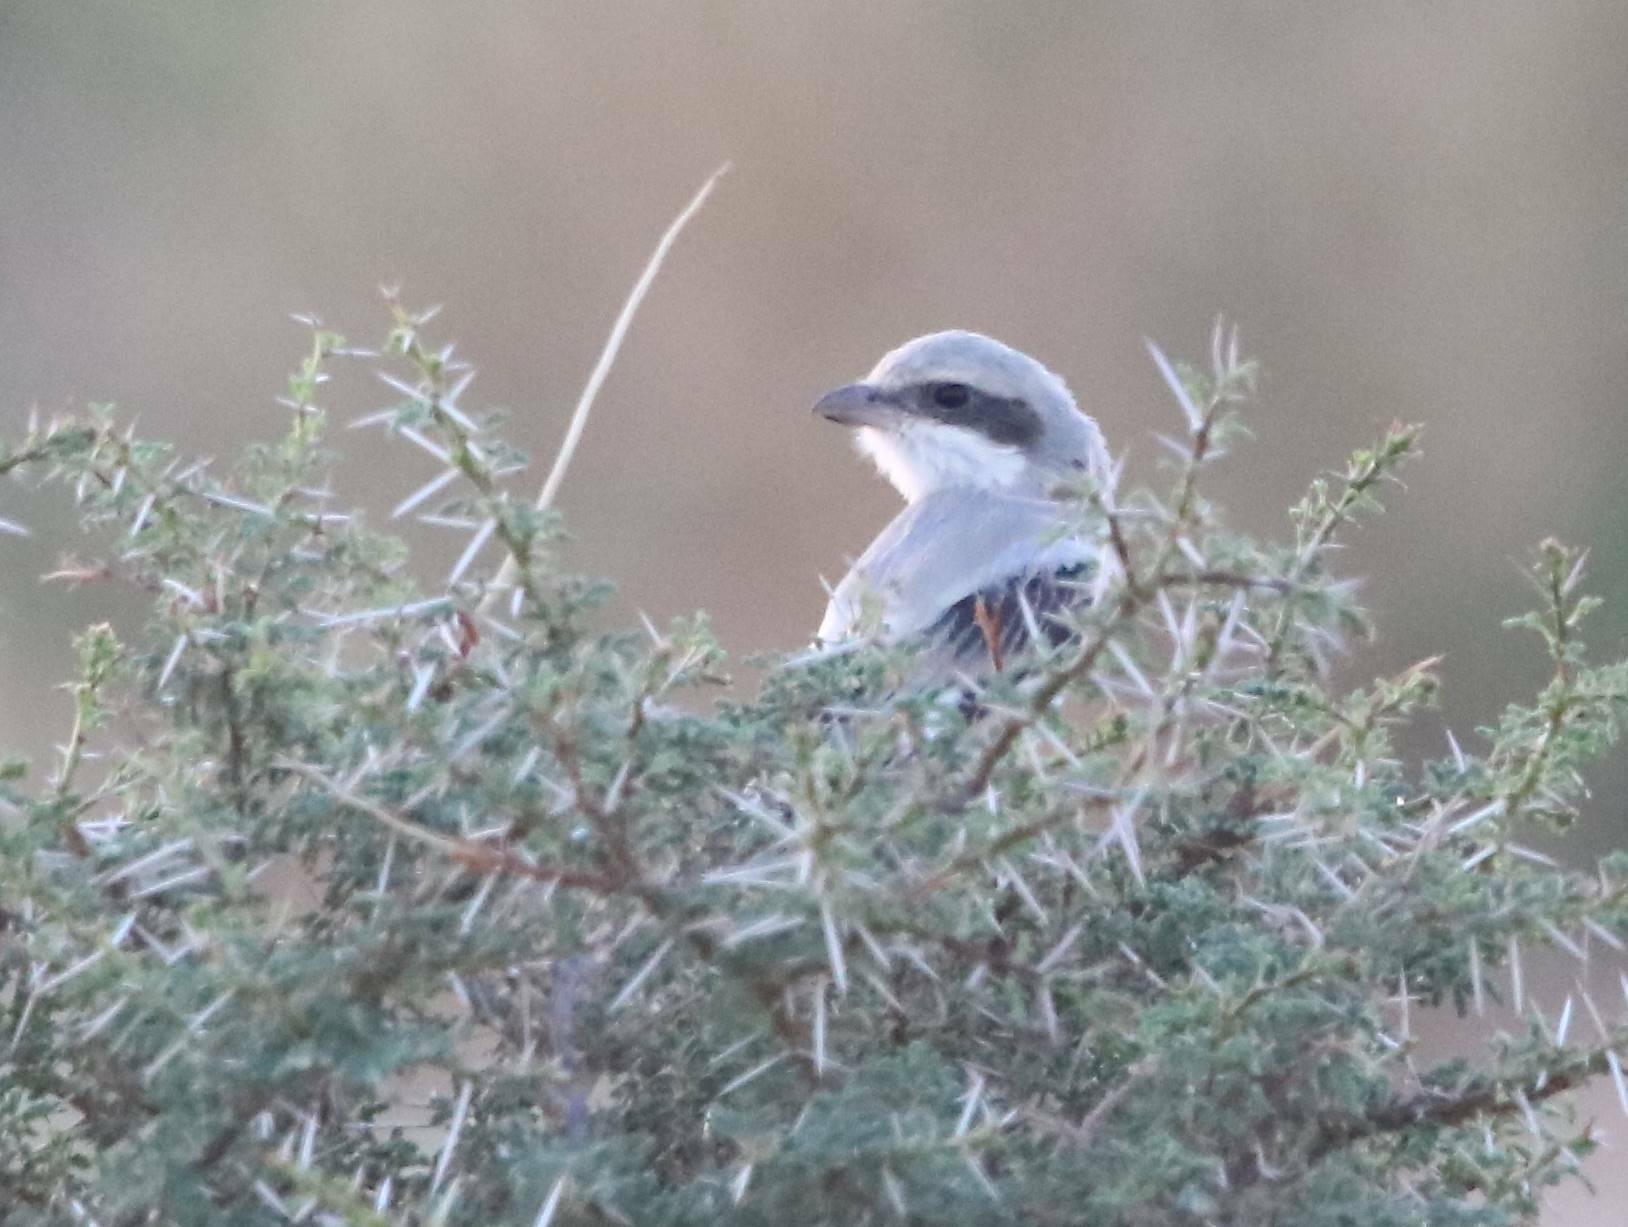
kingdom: Animalia
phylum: Chordata
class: Aves
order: Passeriformes
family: Laniidae
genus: Lanius
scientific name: Lanius excubitor
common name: Great grey shrike
